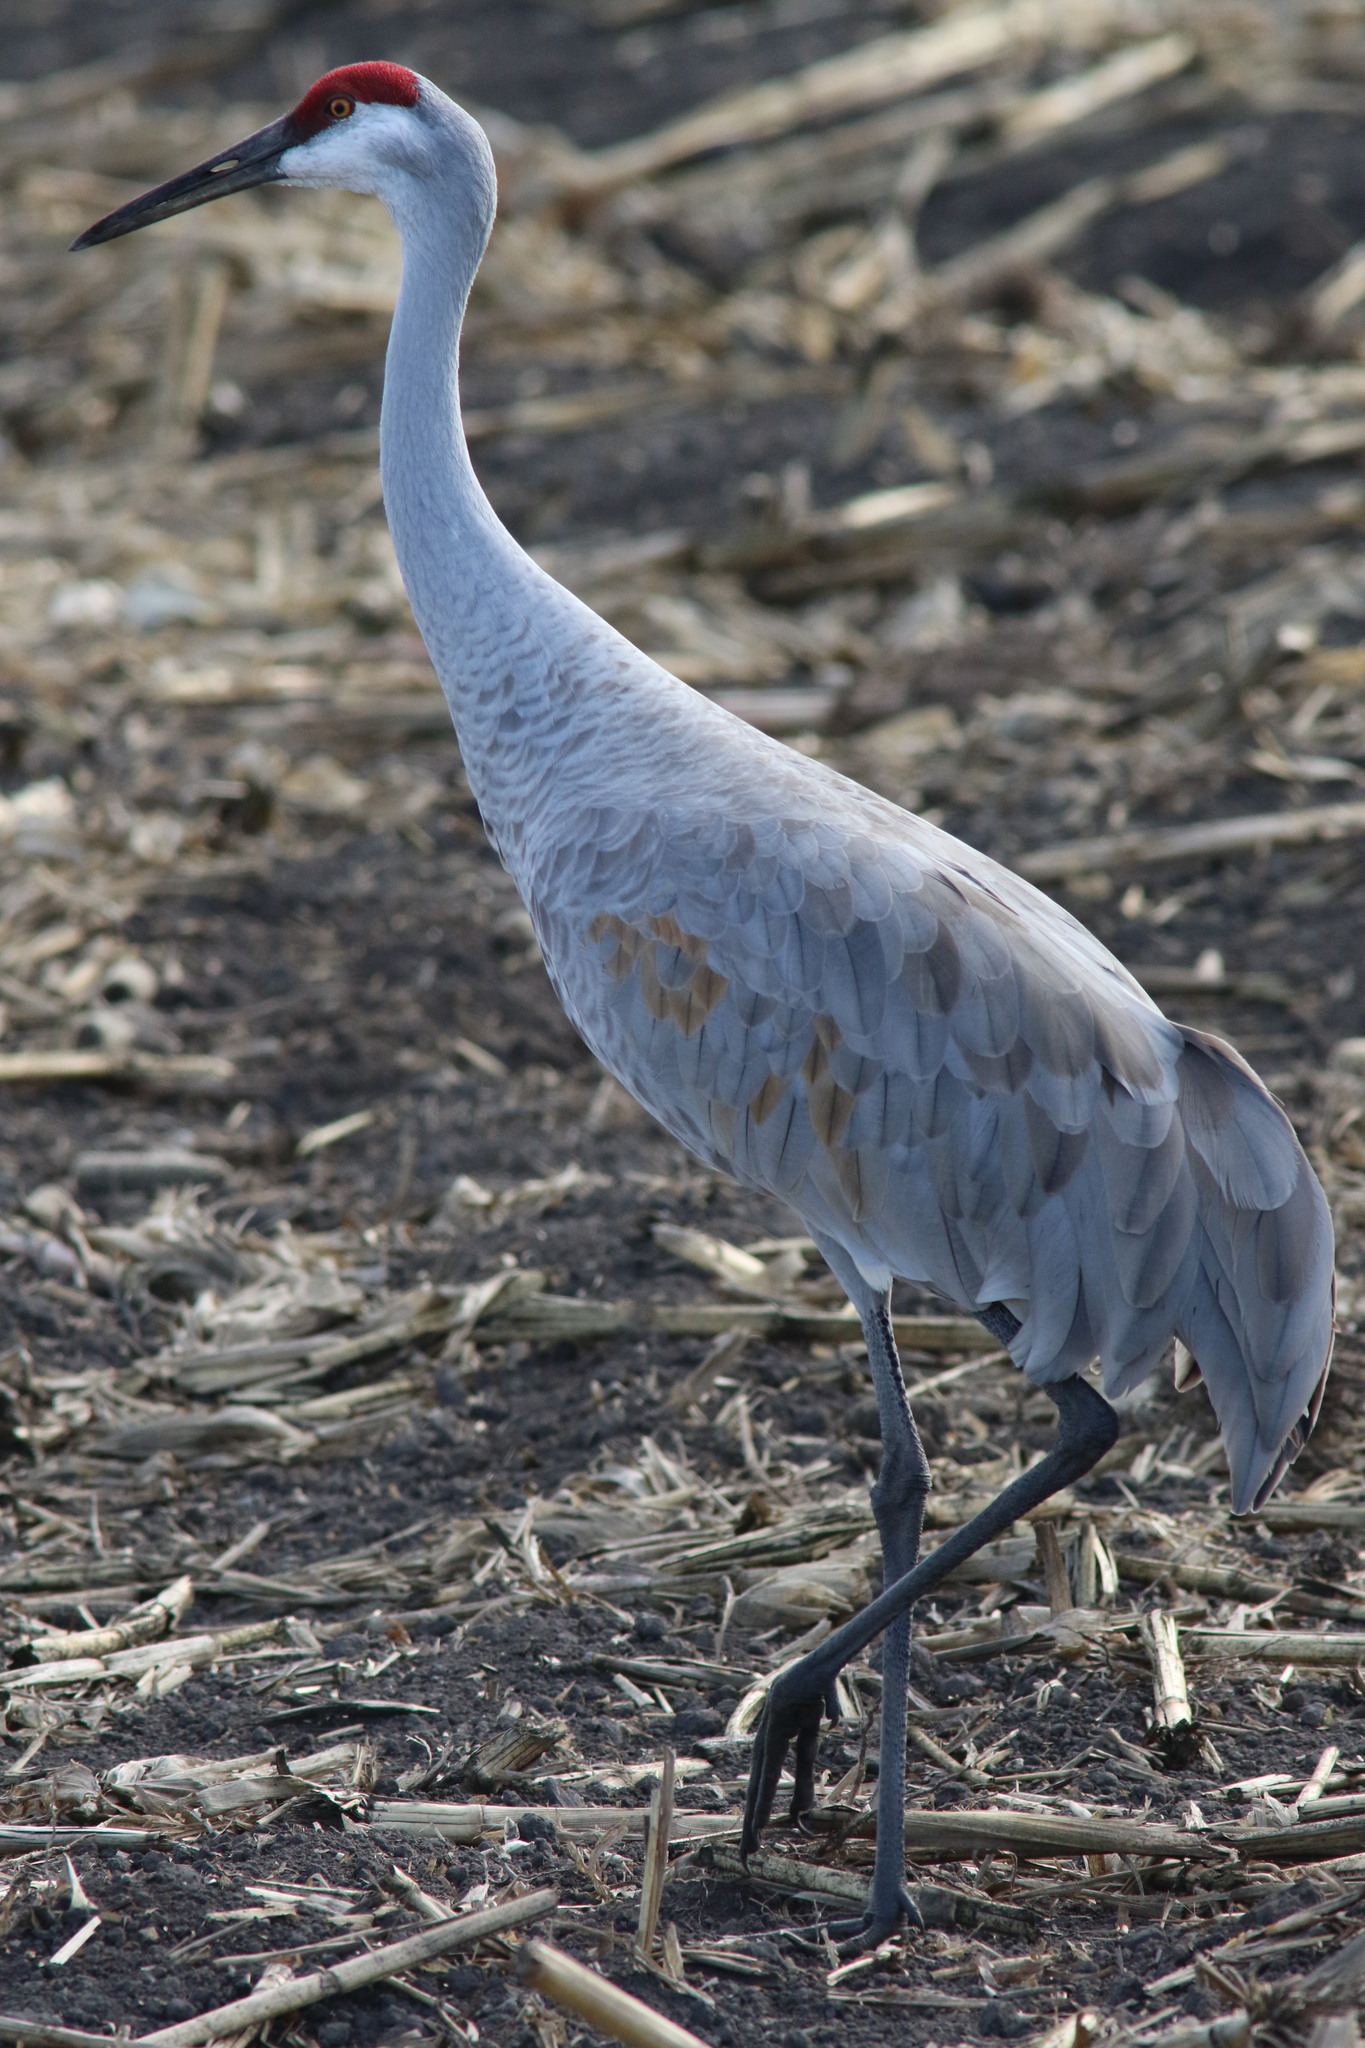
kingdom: Animalia
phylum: Chordata
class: Aves
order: Gruiformes
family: Gruidae
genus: Grus
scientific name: Grus canadensis
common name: Sandhill crane
